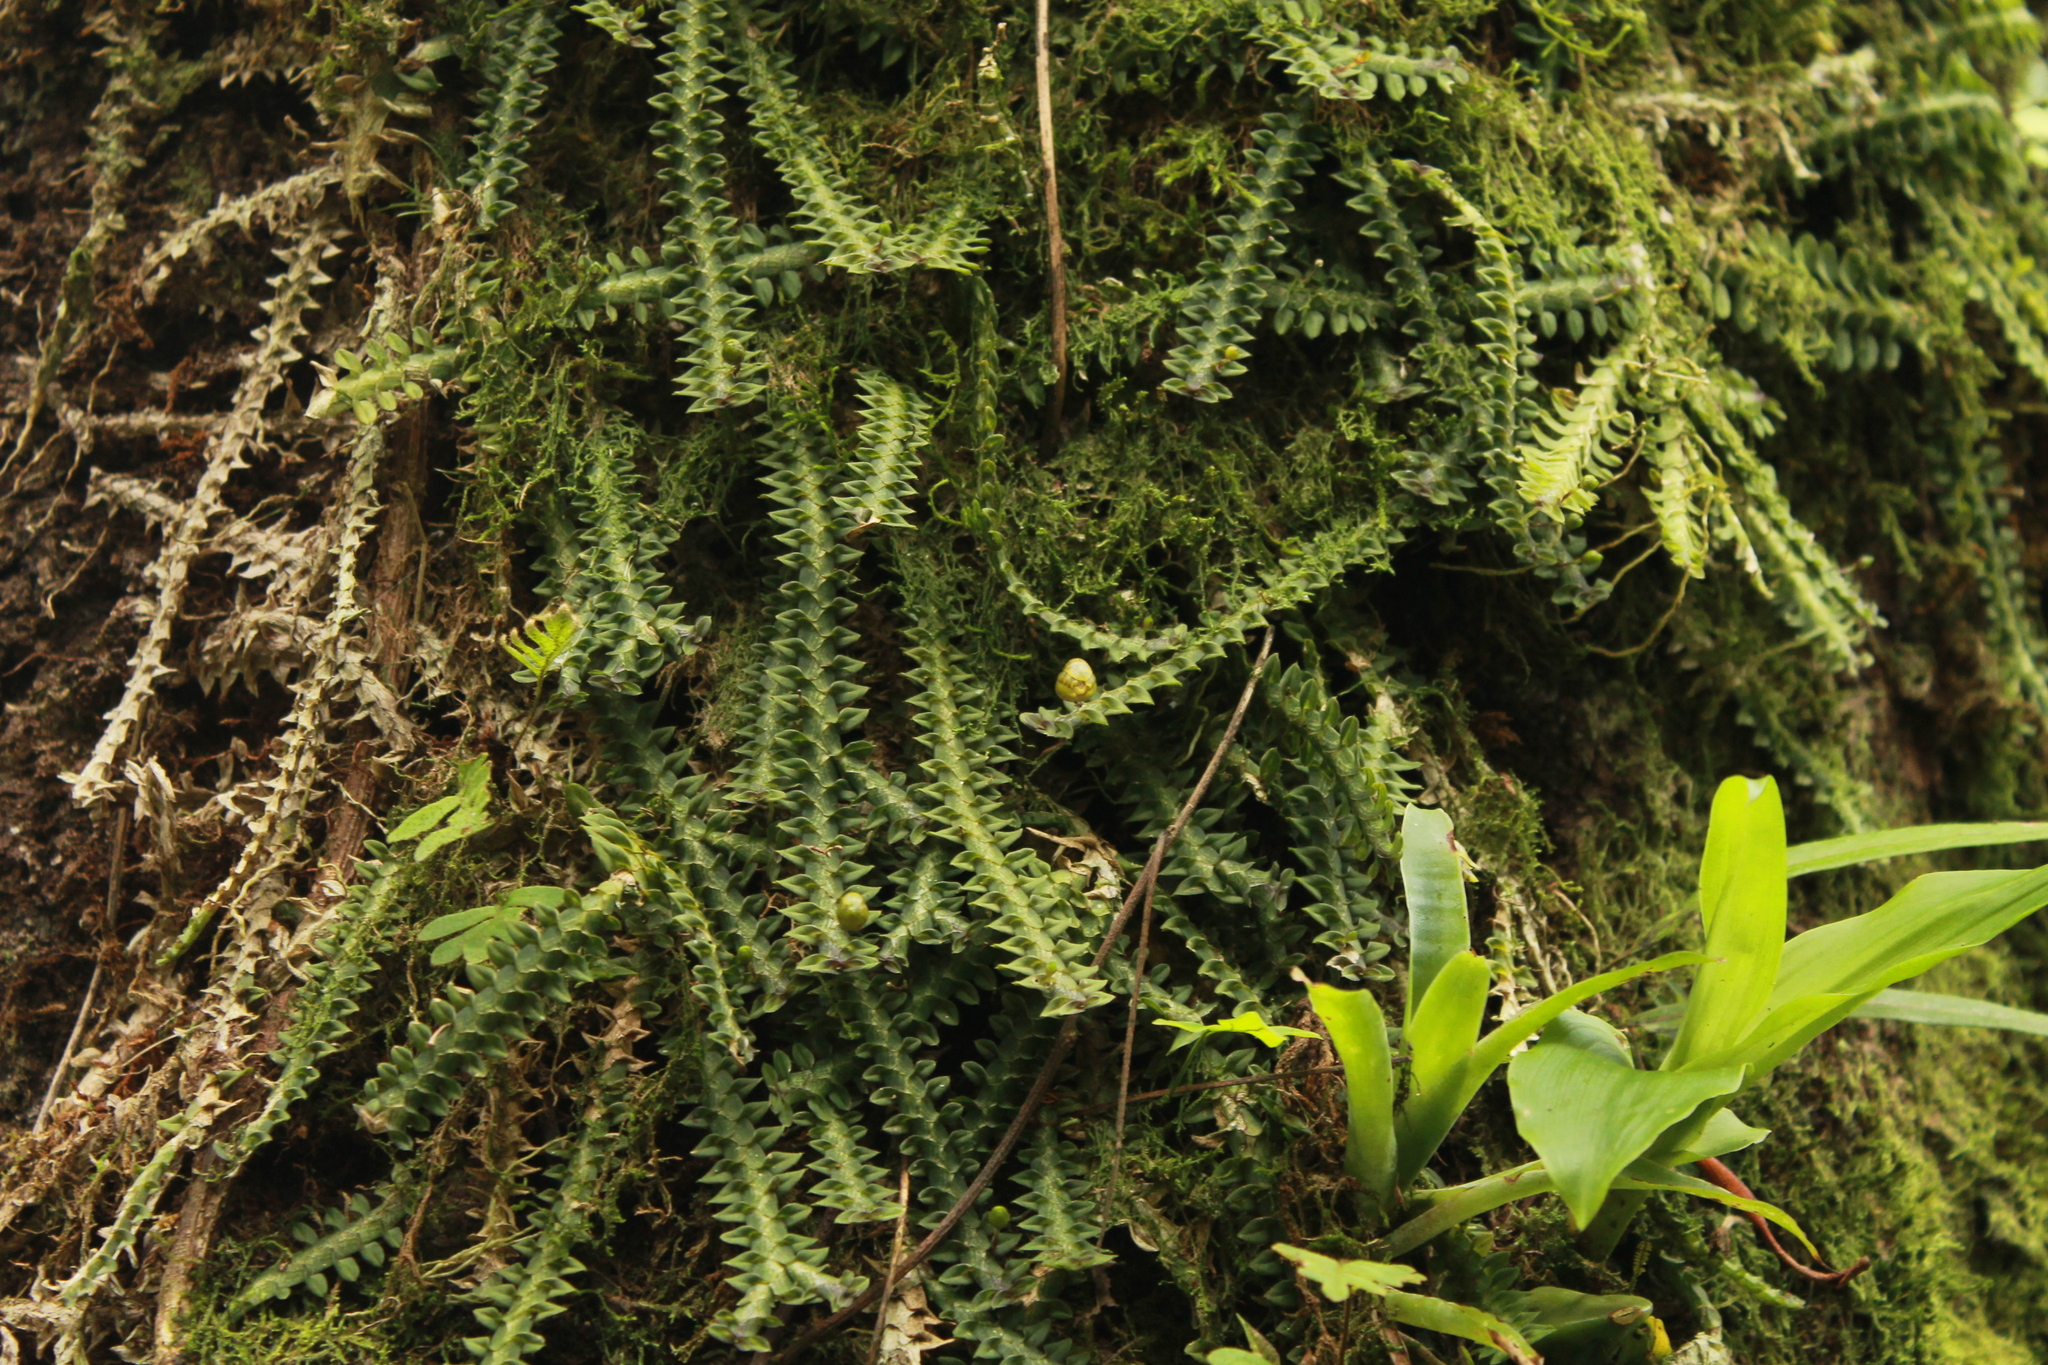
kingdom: Plantae
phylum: Tracheophyta
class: Liliopsida
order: Asparagales
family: Orchidaceae
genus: Dichaea
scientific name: Dichaea neglecta
